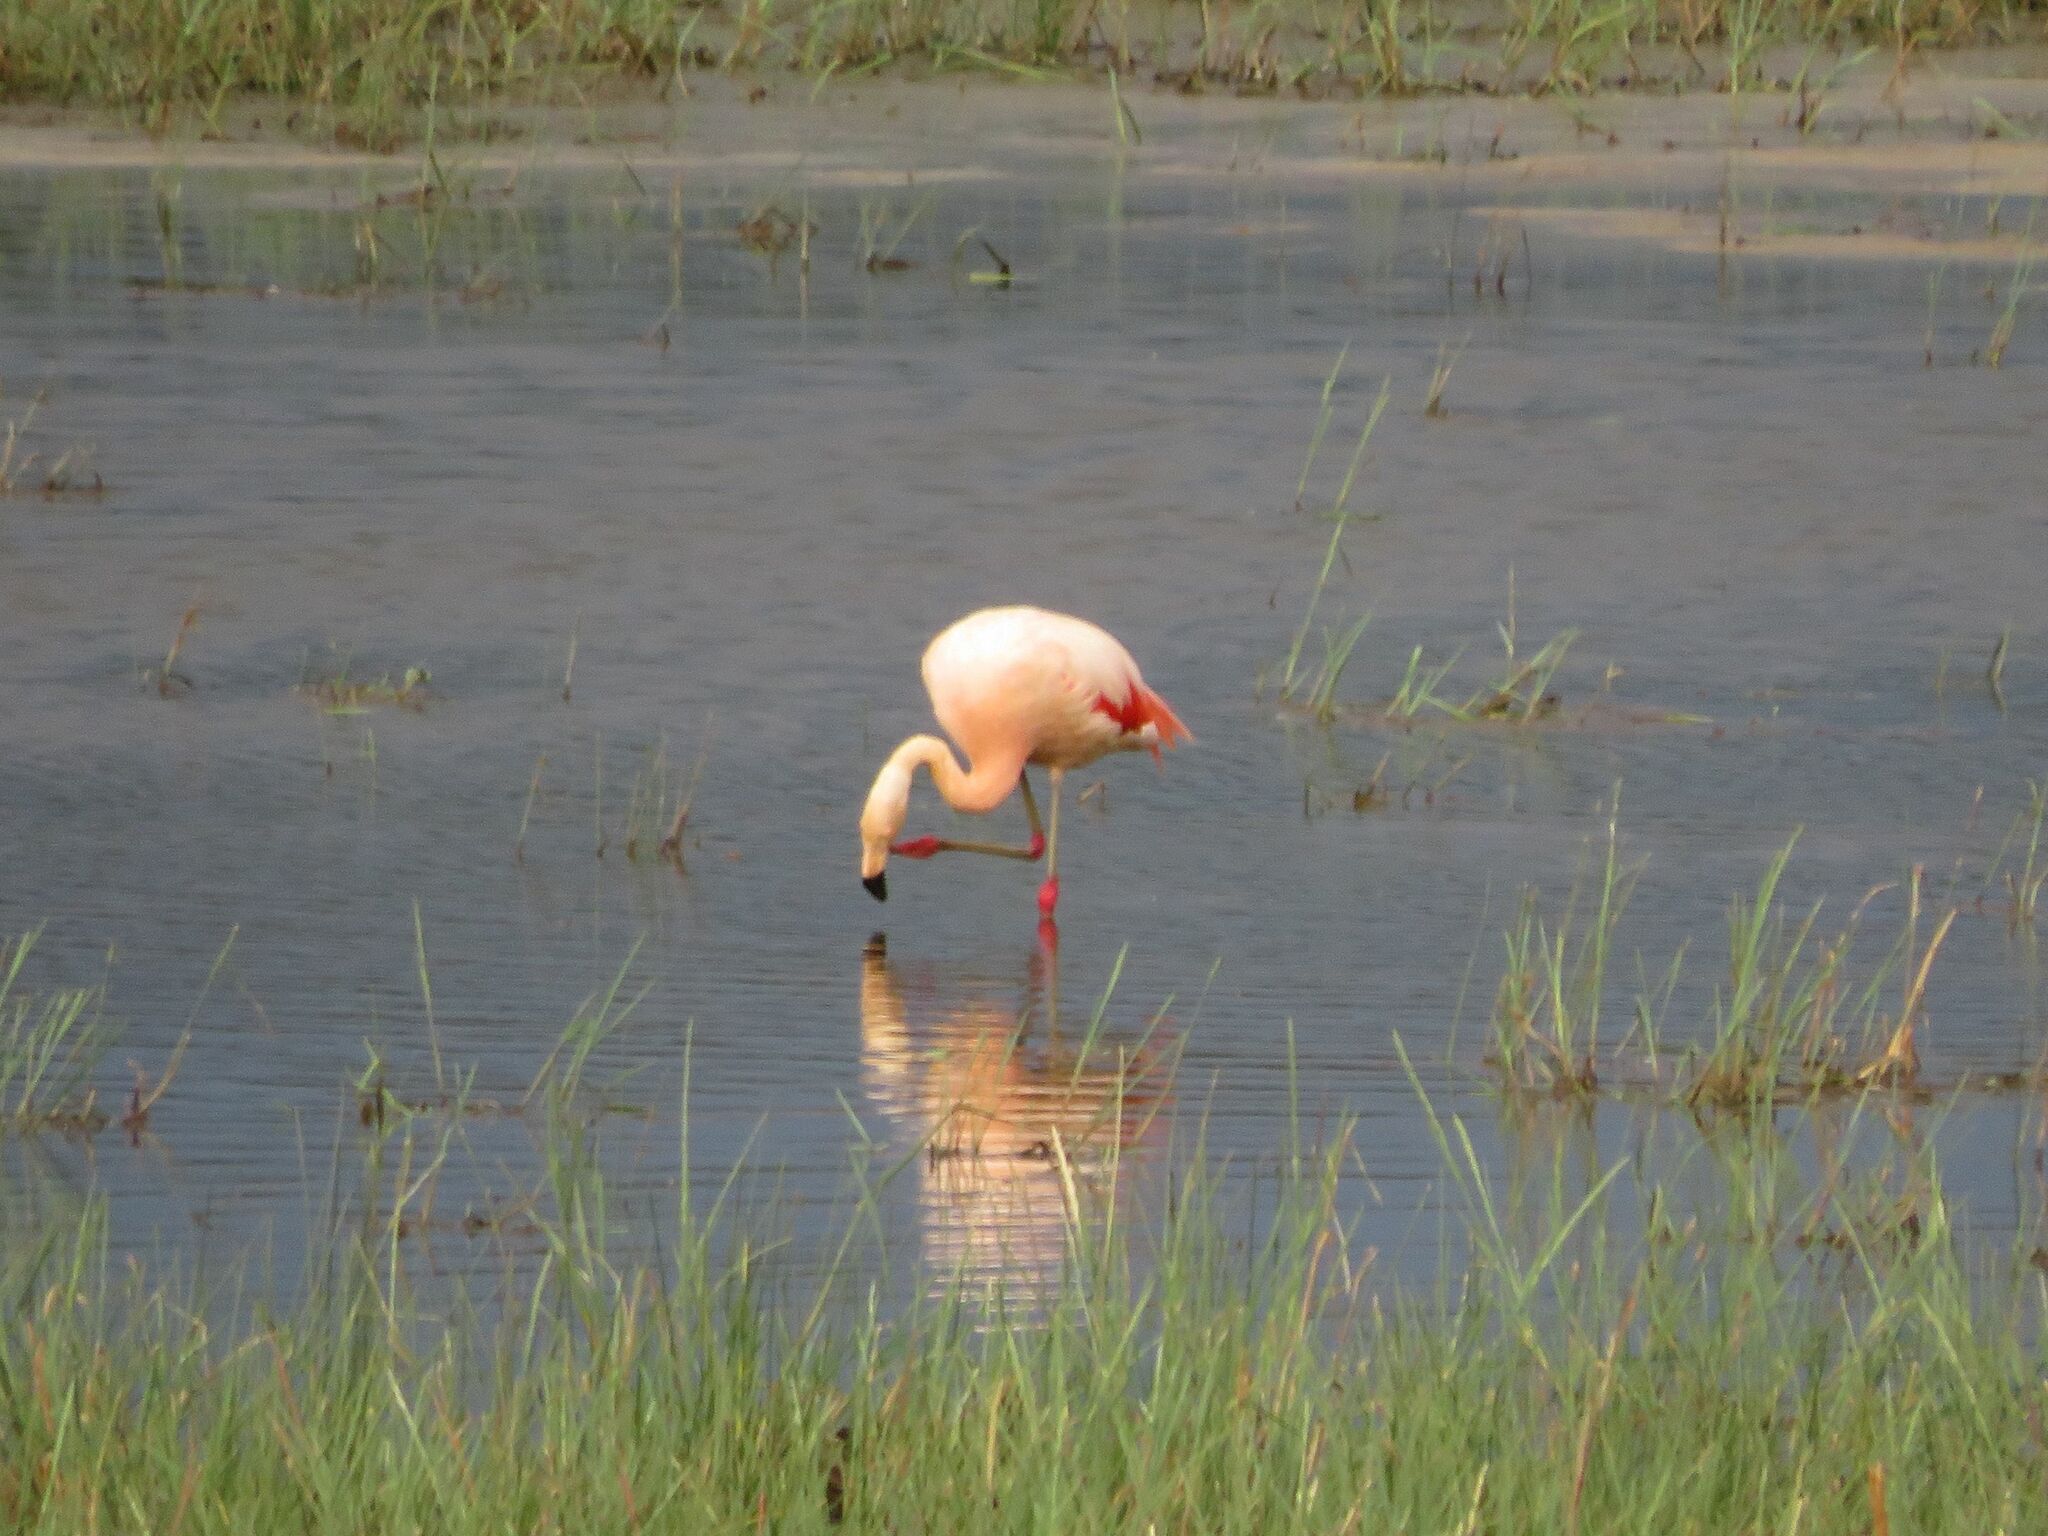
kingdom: Animalia
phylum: Chordata
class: Aves
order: Phoenicopteriformes
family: Phoenicopteridae
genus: Phoenicopterus
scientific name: Phoenicopterus chilensis
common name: Chilean flamingo
